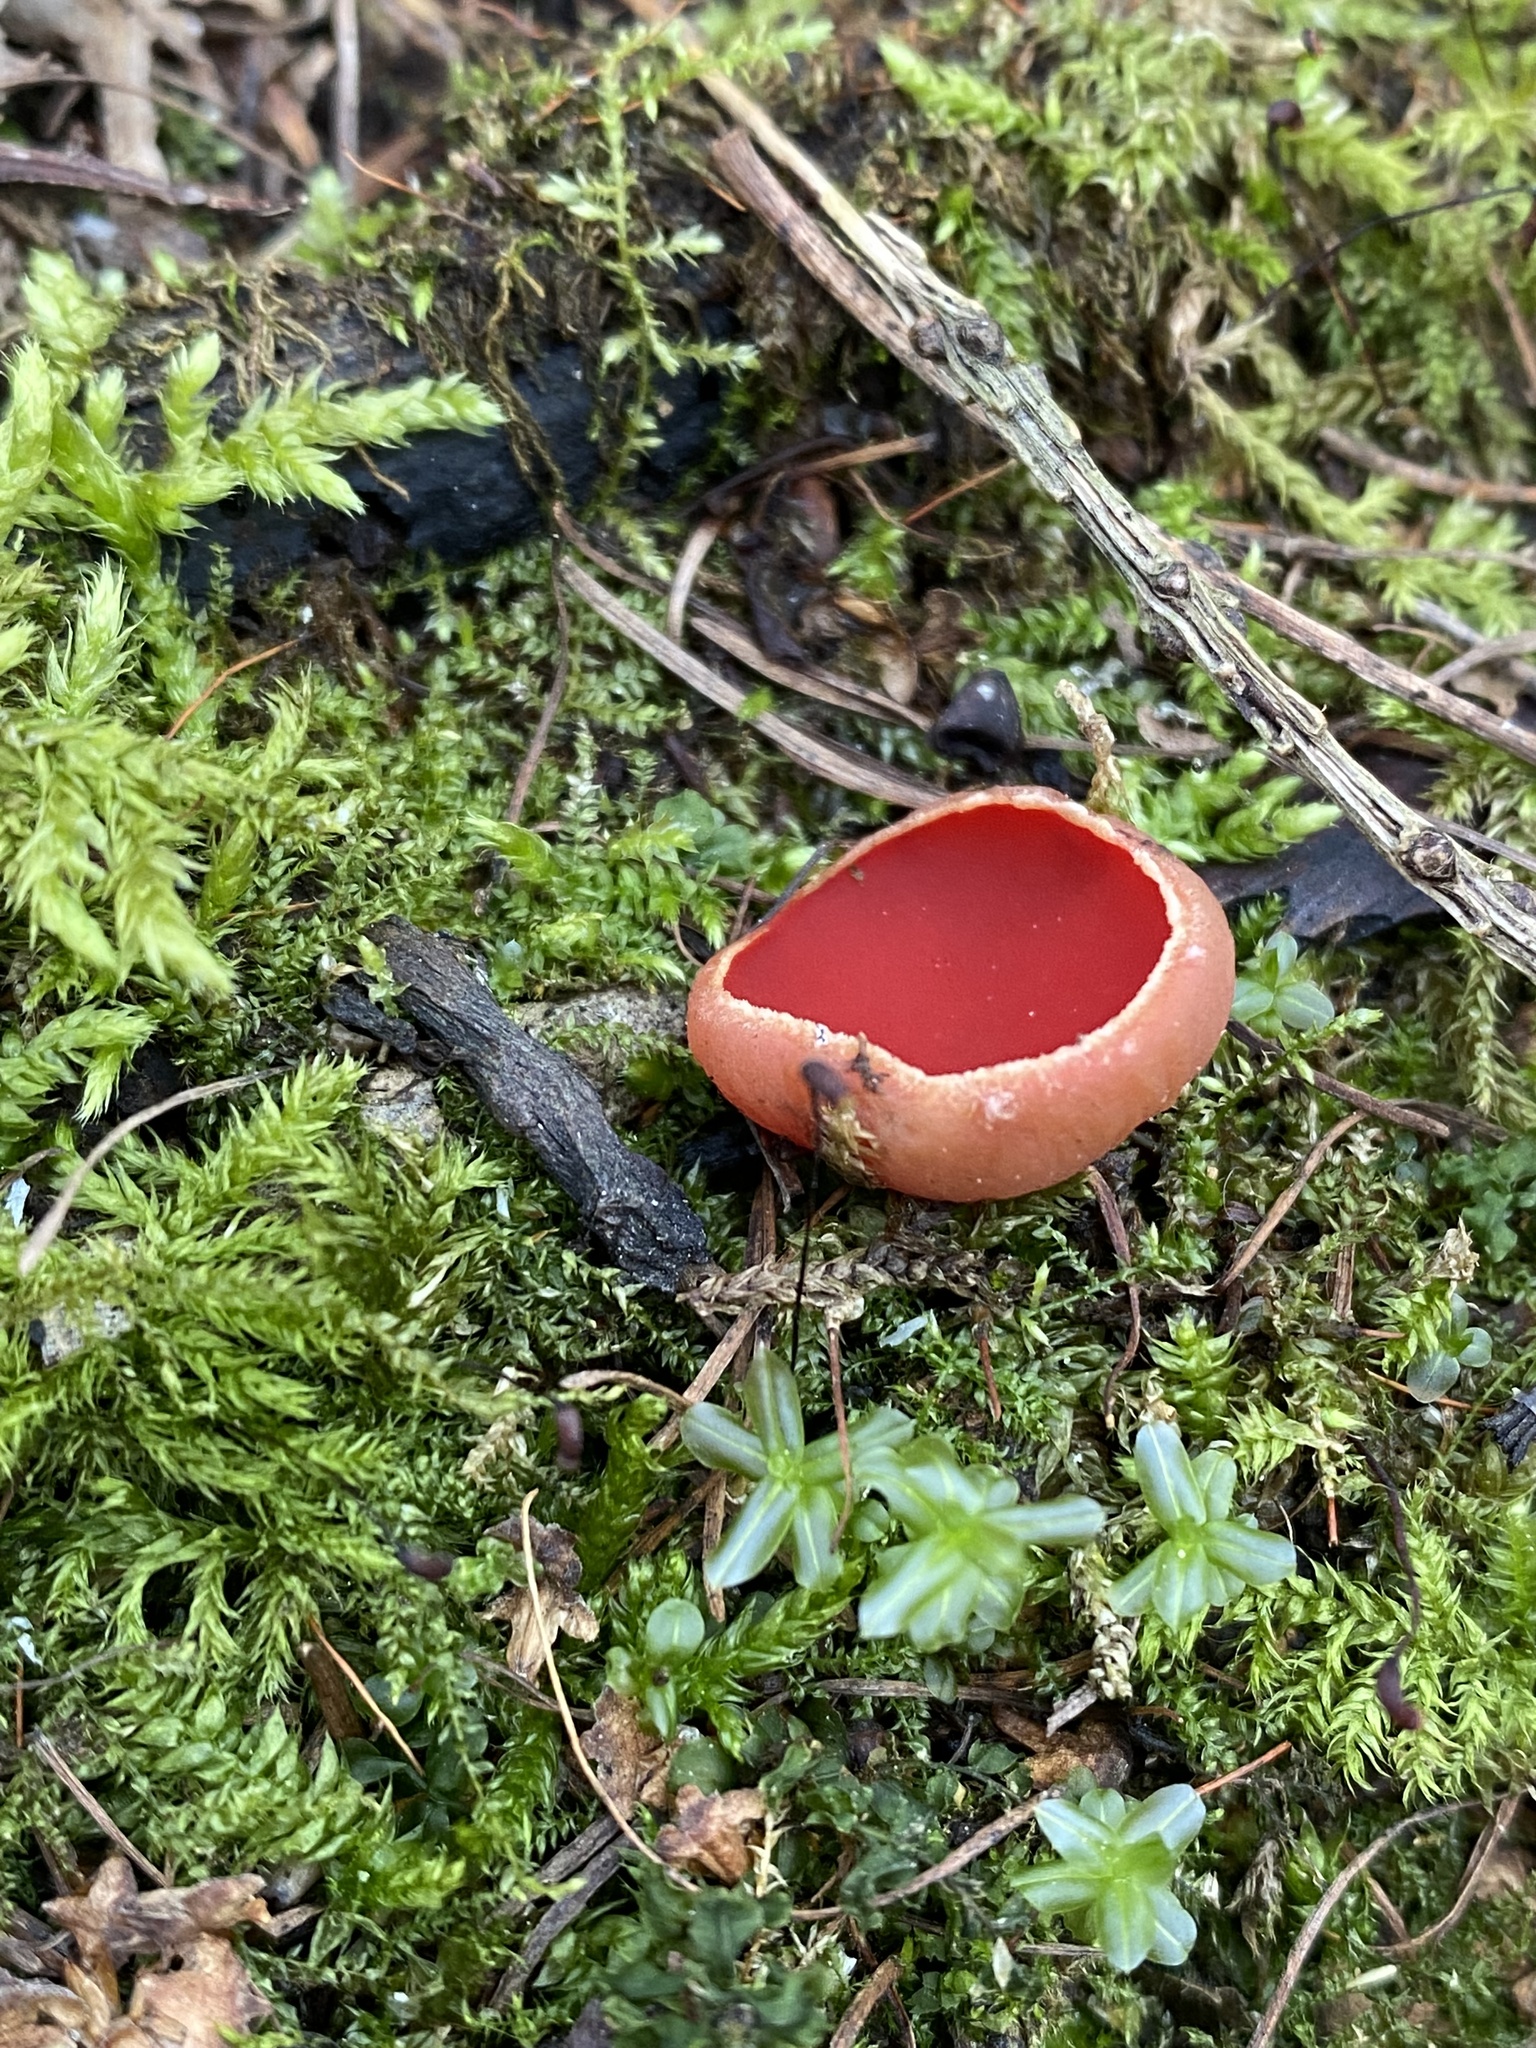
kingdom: Fungi
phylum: Ascomycota
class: Pezizomycetes
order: Pezizales
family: Sarcoscyphaceae
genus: Sarcoscypha
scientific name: Sarcoscypha
